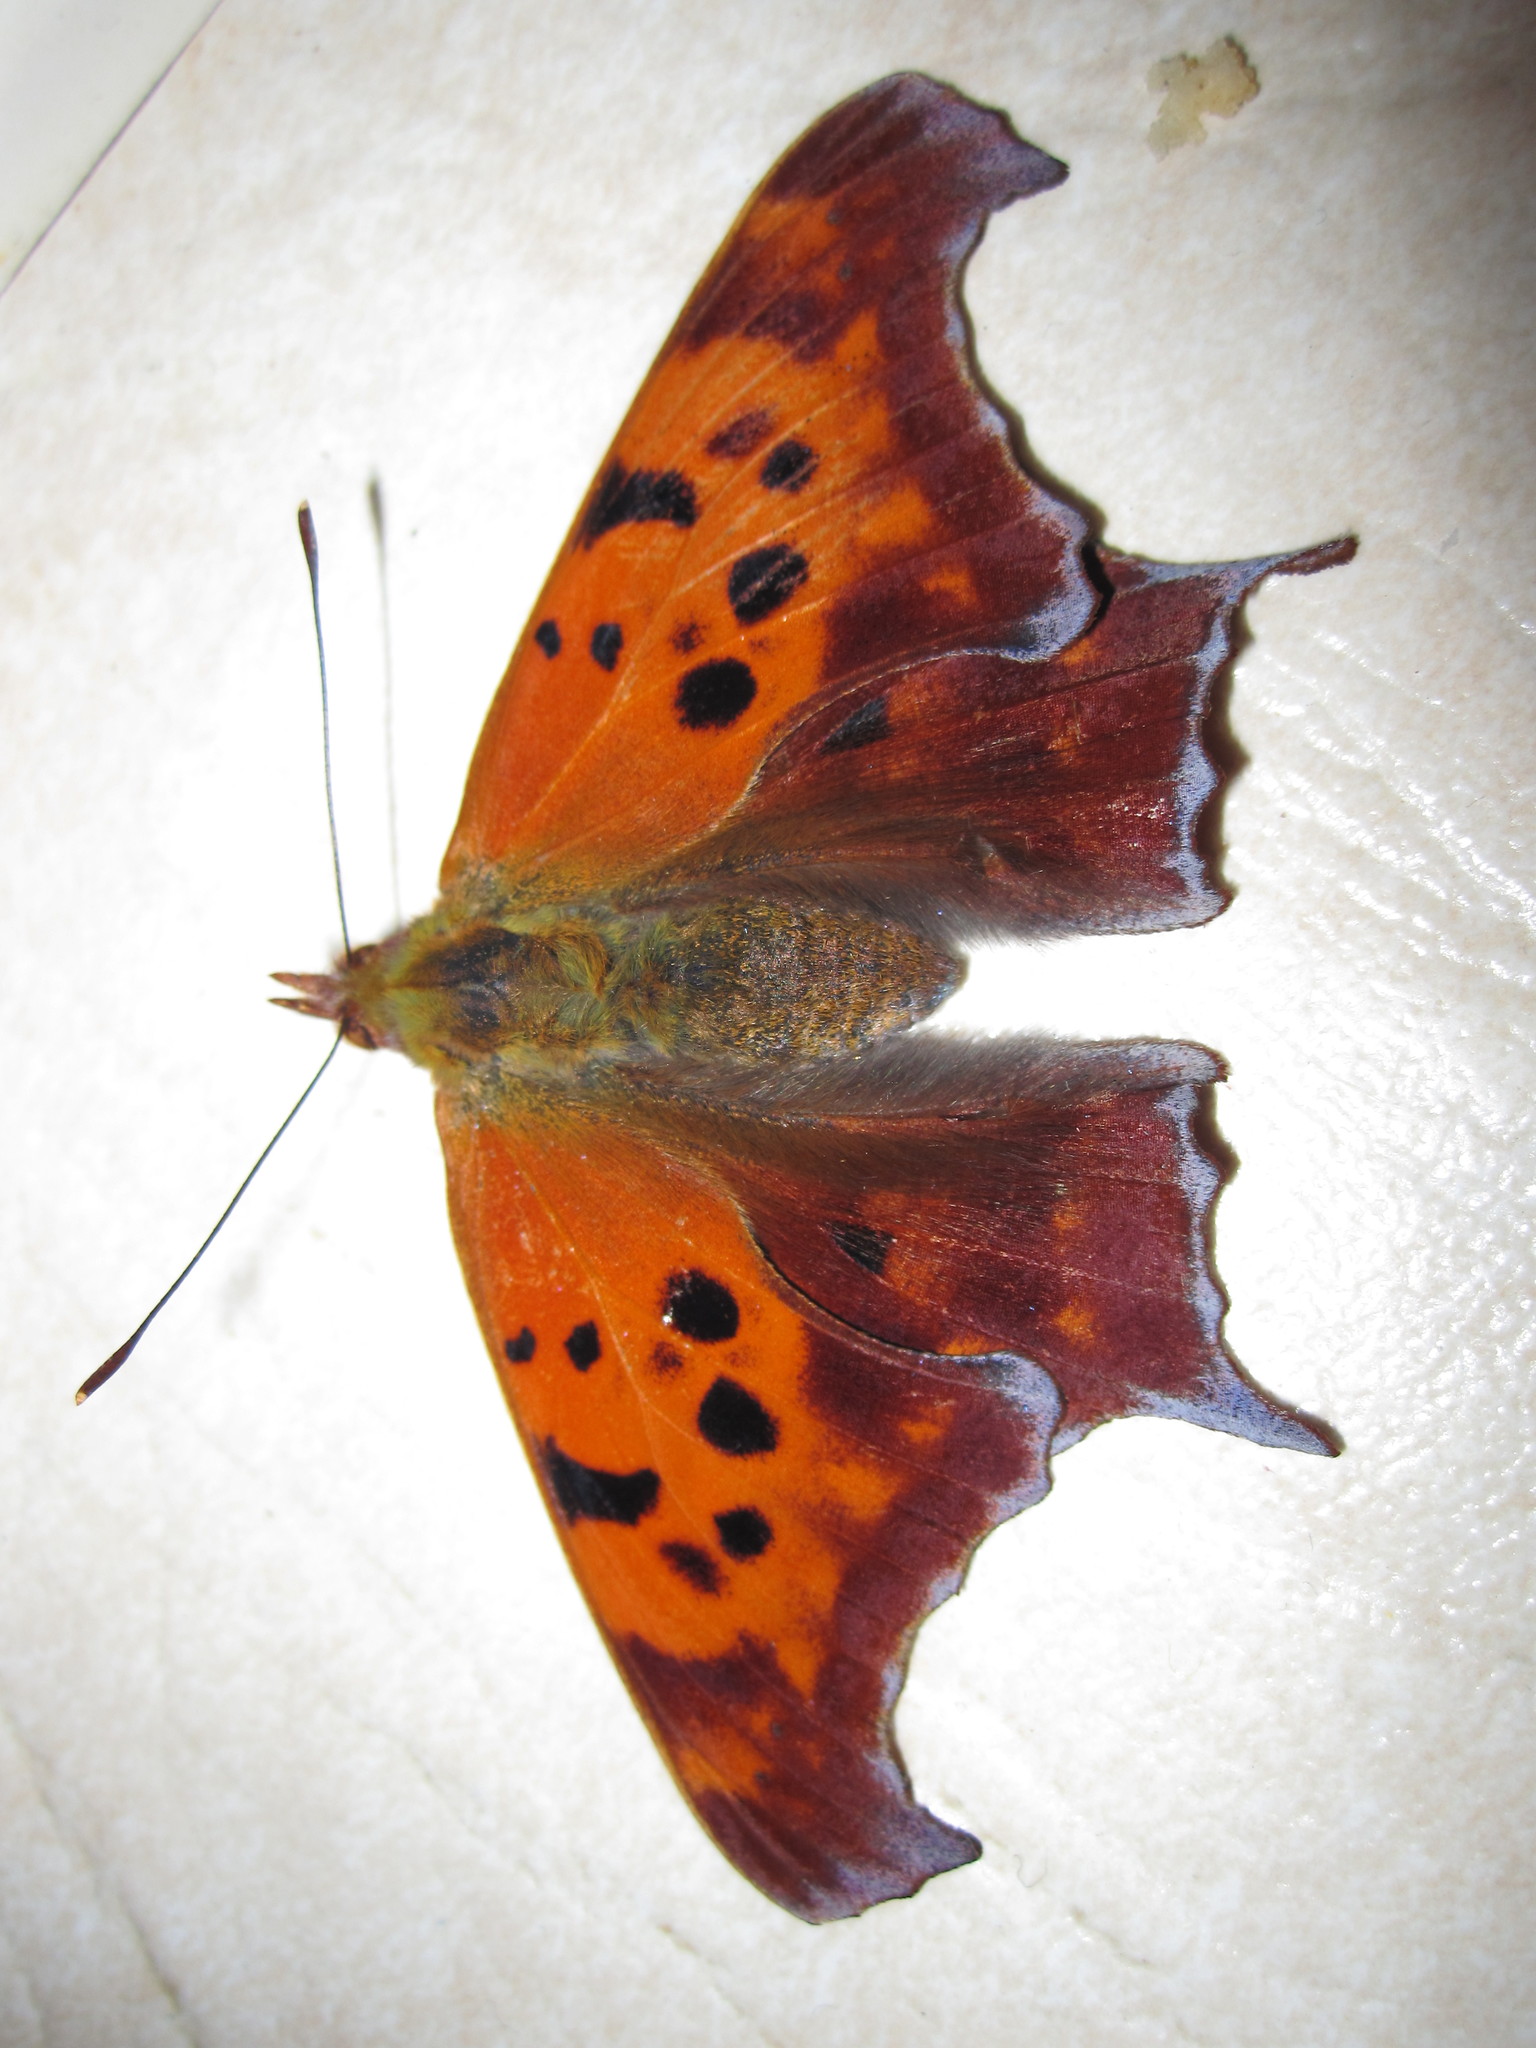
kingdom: Animalia
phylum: Arthropoda
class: Insecta
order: Lepidoptera
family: Nymphalidae
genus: Polygonia
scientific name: Polygonia interrogationis
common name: Question mark
